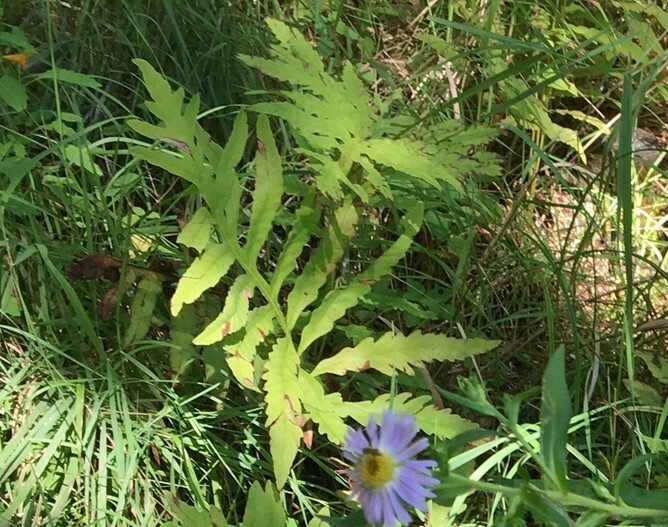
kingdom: Plantae
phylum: Tracheophyta
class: Polypodiopsida
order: Polypodiales
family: Onocleaceae
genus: Onoclea
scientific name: Onoclea sensibilis
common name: Sensitive fern
